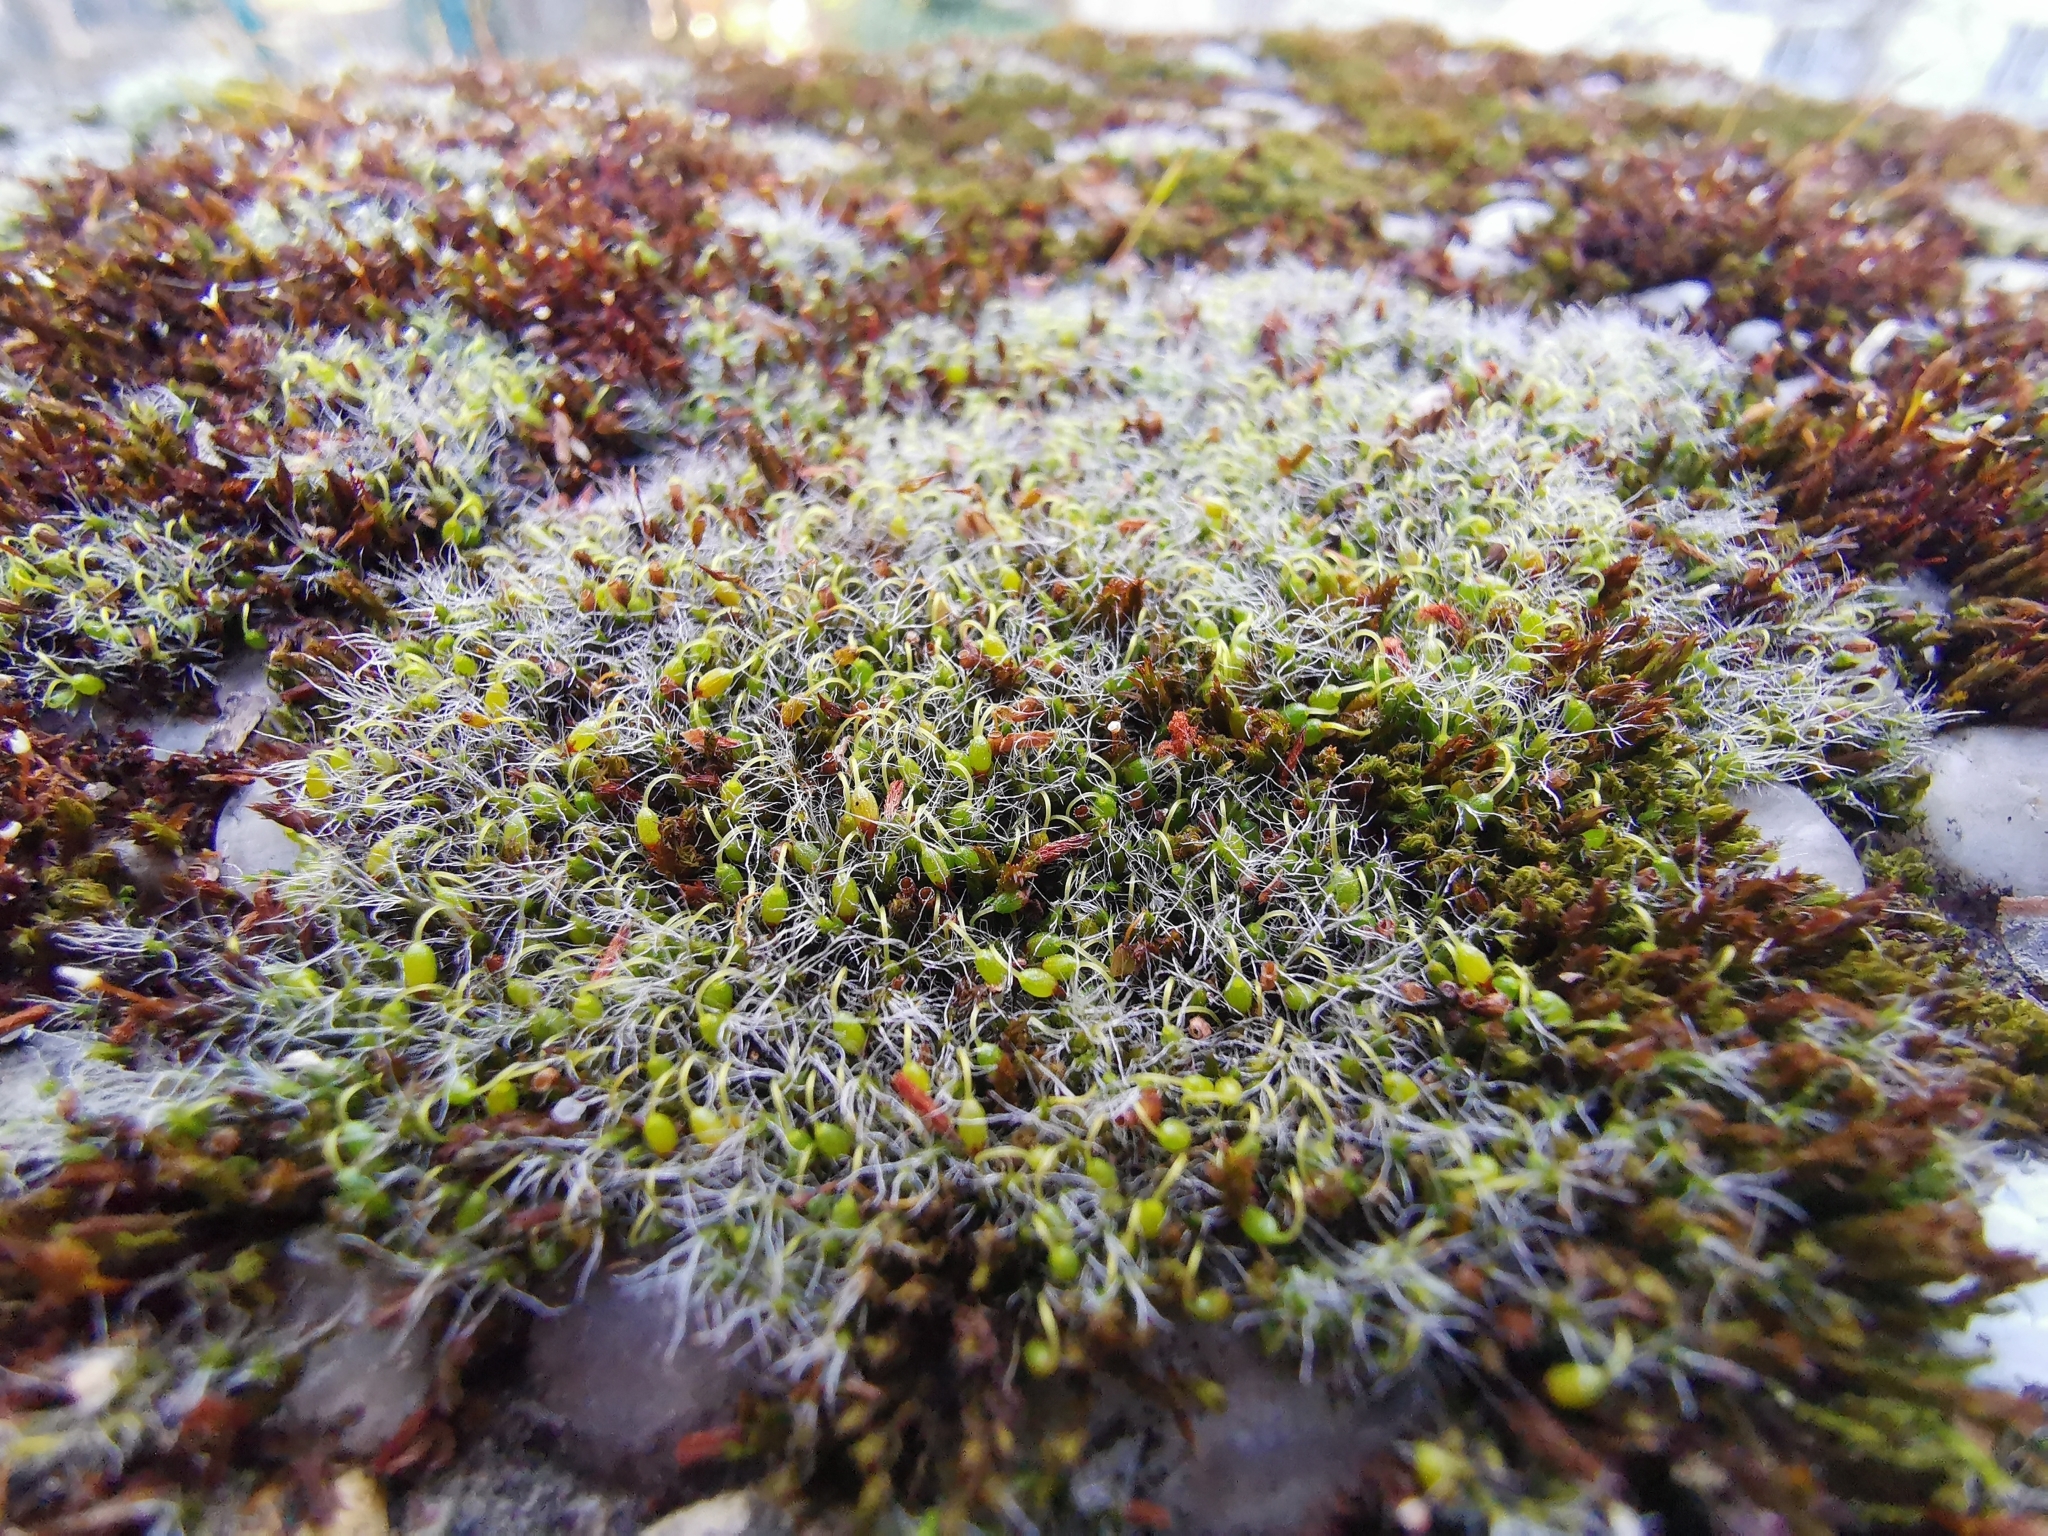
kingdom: Plantae
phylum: Bryophyta
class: Bryopsida
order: Grimmiales
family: Grimmiaceae
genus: Grimmia
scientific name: Grimmia pulvinata
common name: Grey-cushioned grimmia
